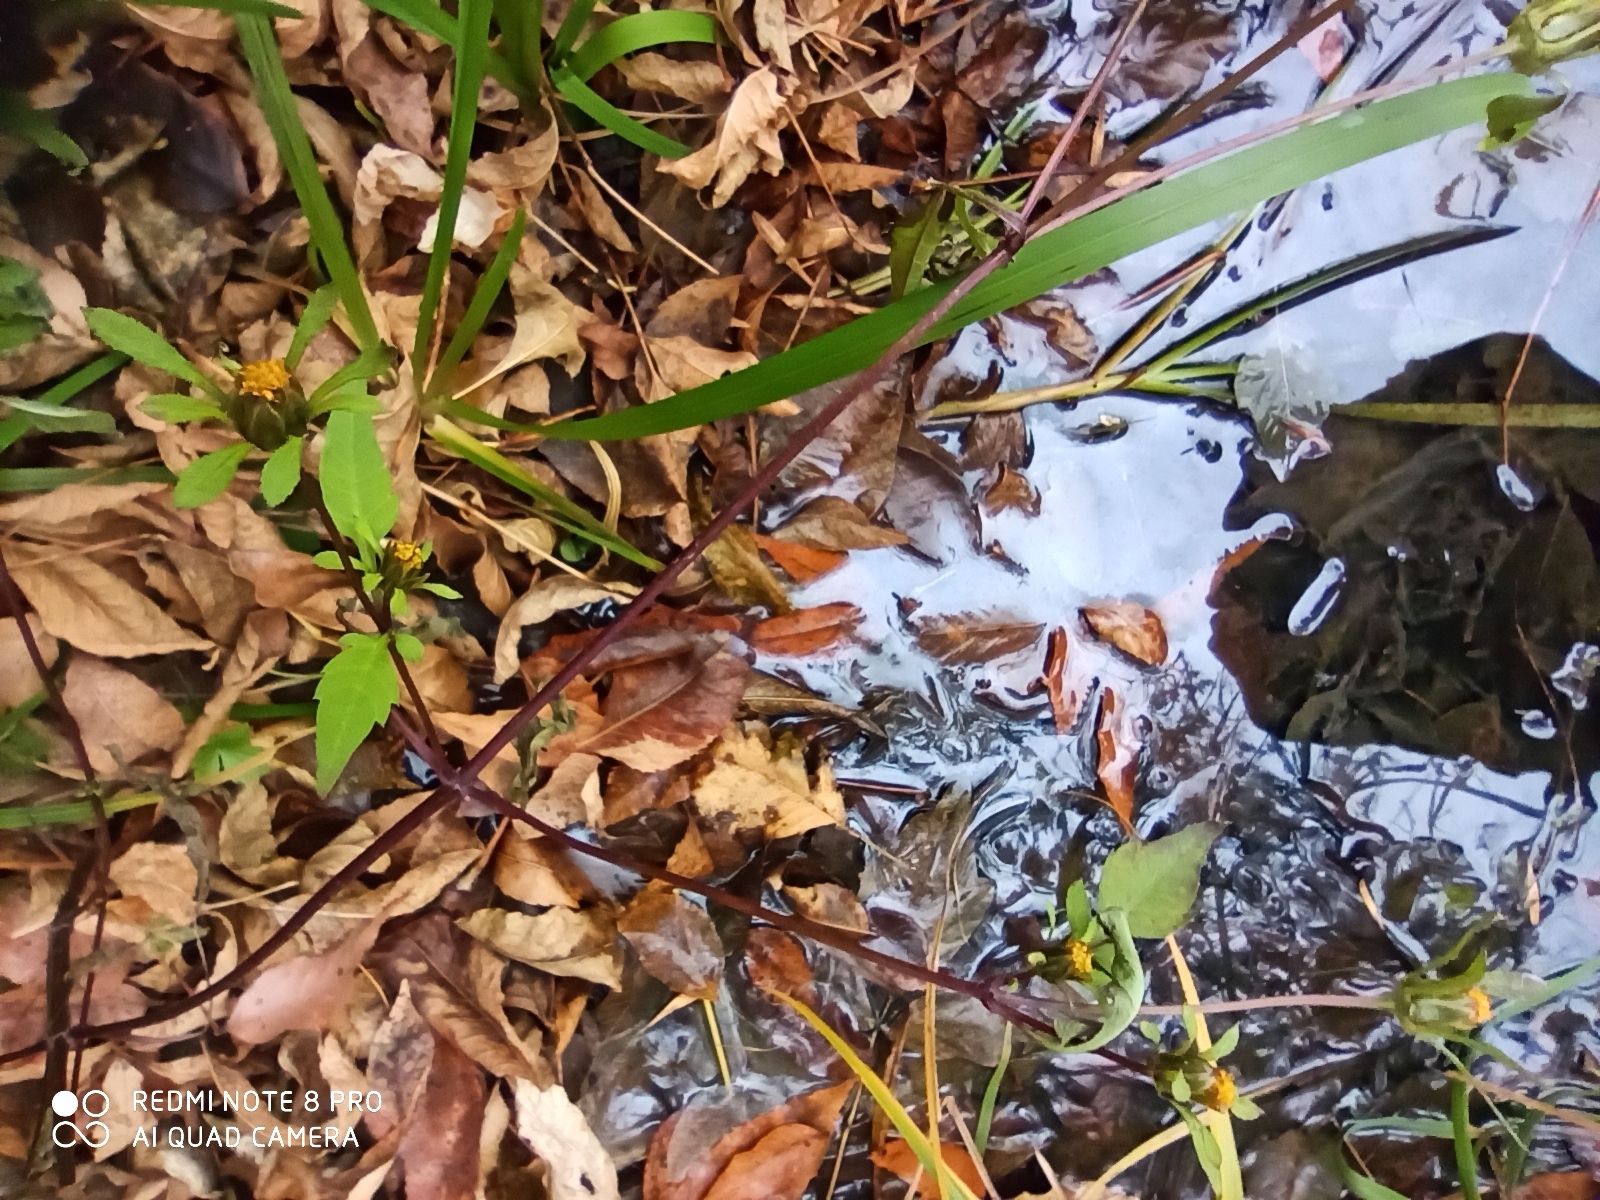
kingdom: Plantae
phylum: Tracheophyta
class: Magnoliopsida
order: Asterales
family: Asteraceae
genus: Bidens
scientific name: Bidens frondosa
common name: Beggarticks
